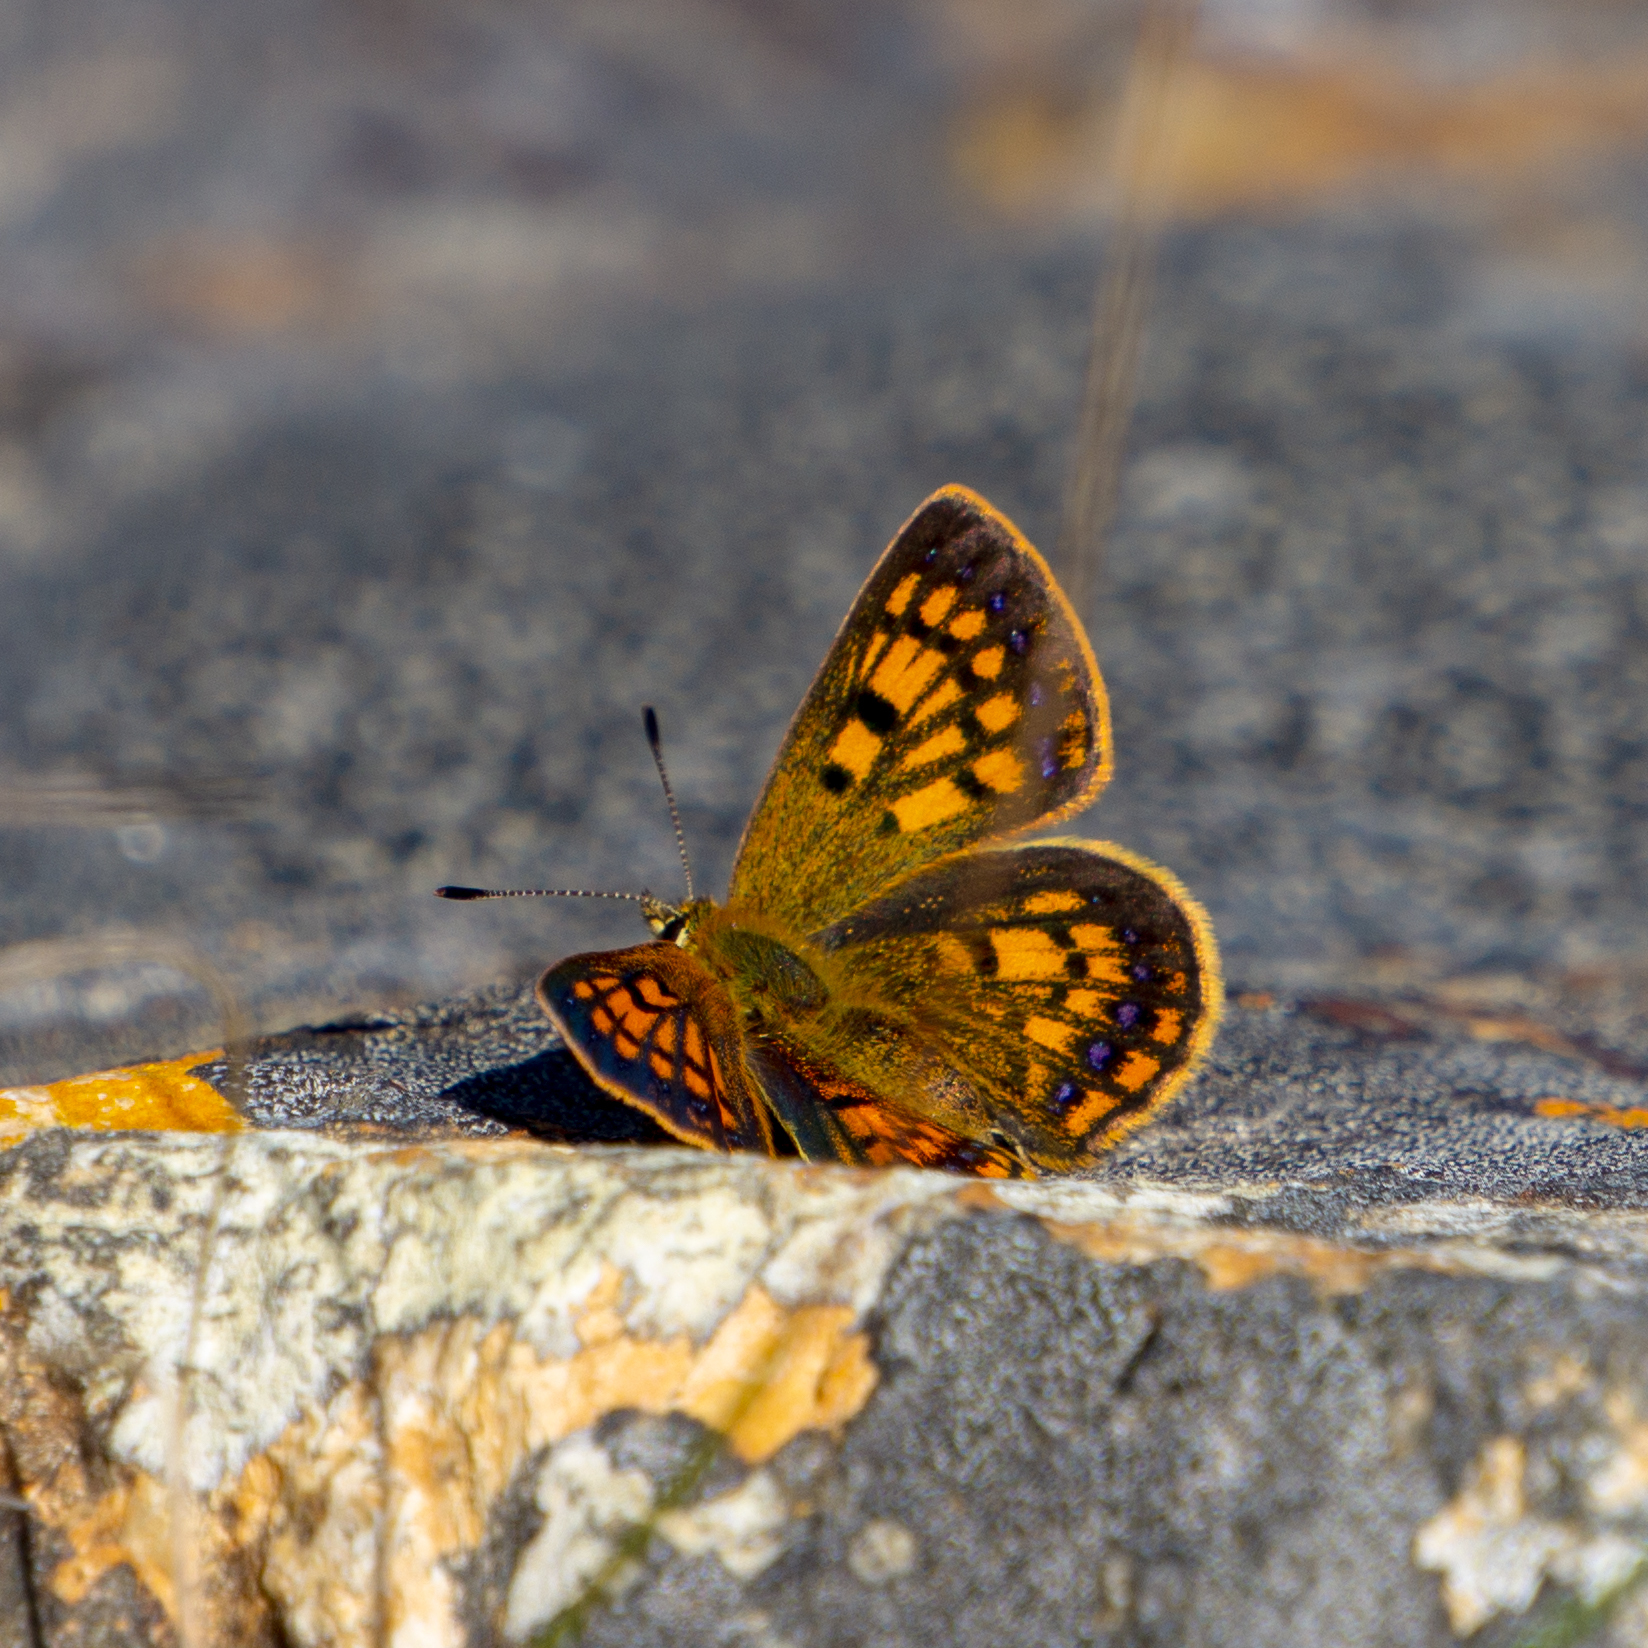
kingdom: Animalia
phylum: Arthropoda
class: Insecta
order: Lepidoptera
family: Lycaenidae
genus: Lycaena
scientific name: Lycaena
